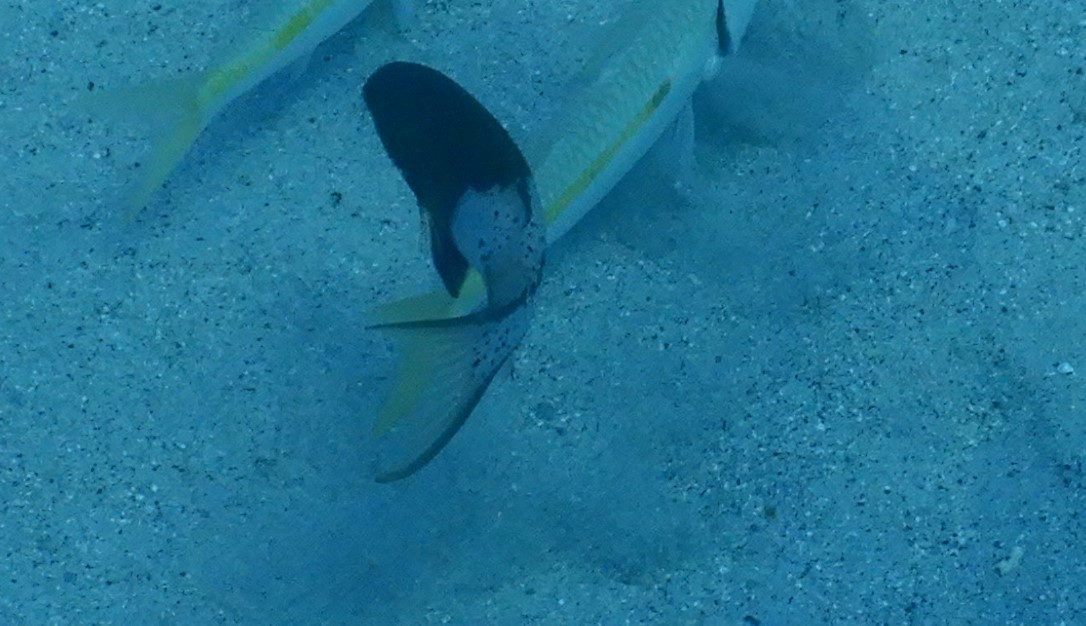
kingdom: Animalia
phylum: Chordata
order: Perciformes
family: Labridae
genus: Bodianus
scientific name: Bodianus anthioides
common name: Lyretail hogfish
